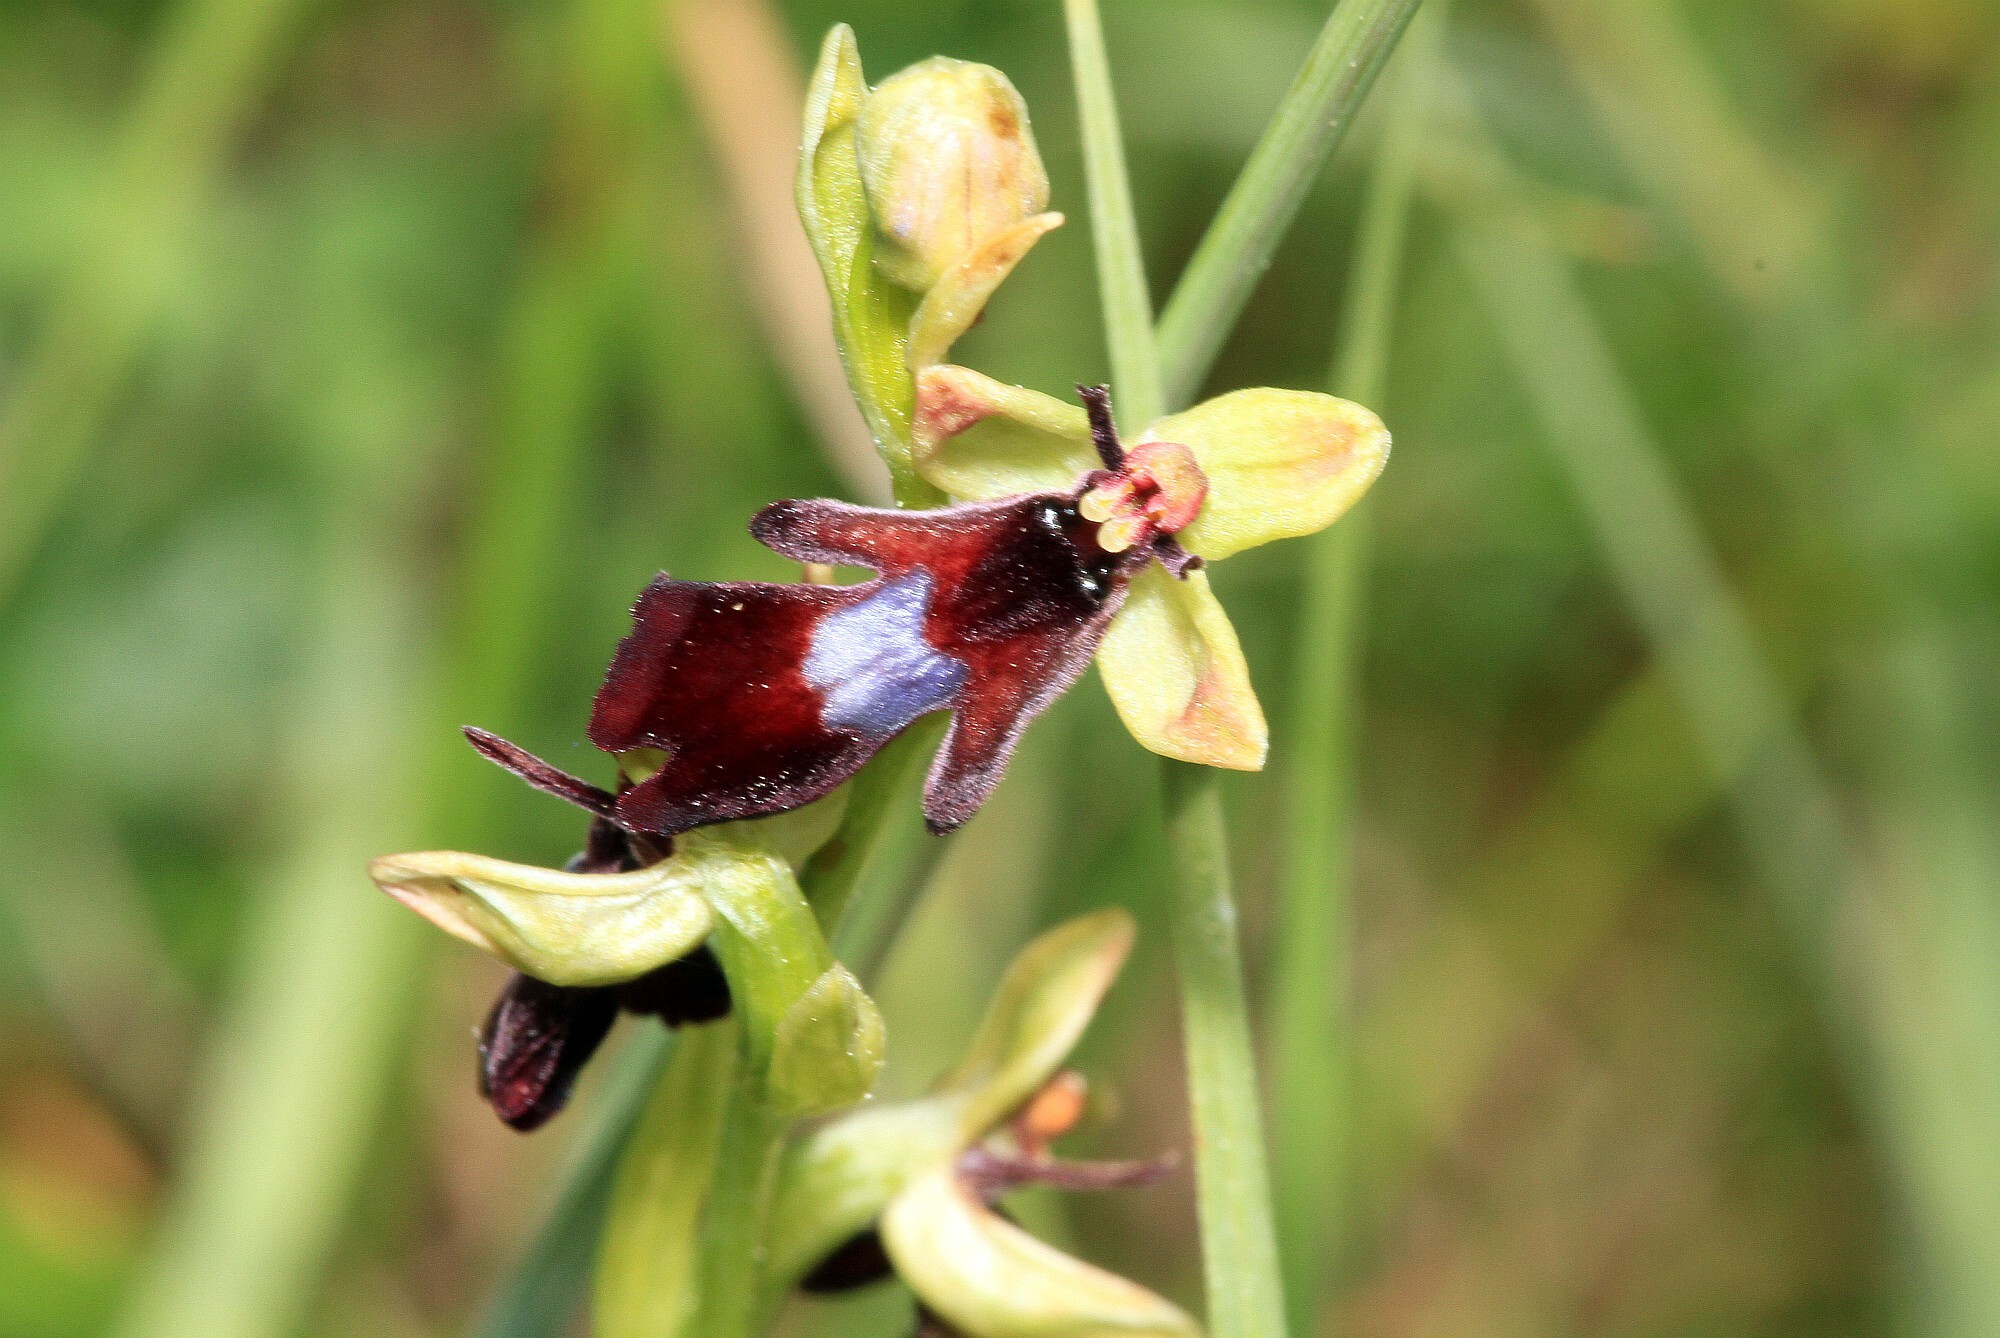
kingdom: Plantae
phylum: Tracheophyta
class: Liliopsida
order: Asparagales
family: Orchidaceae
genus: Ophrys
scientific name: Ophrys insectifera
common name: Fly orchid
